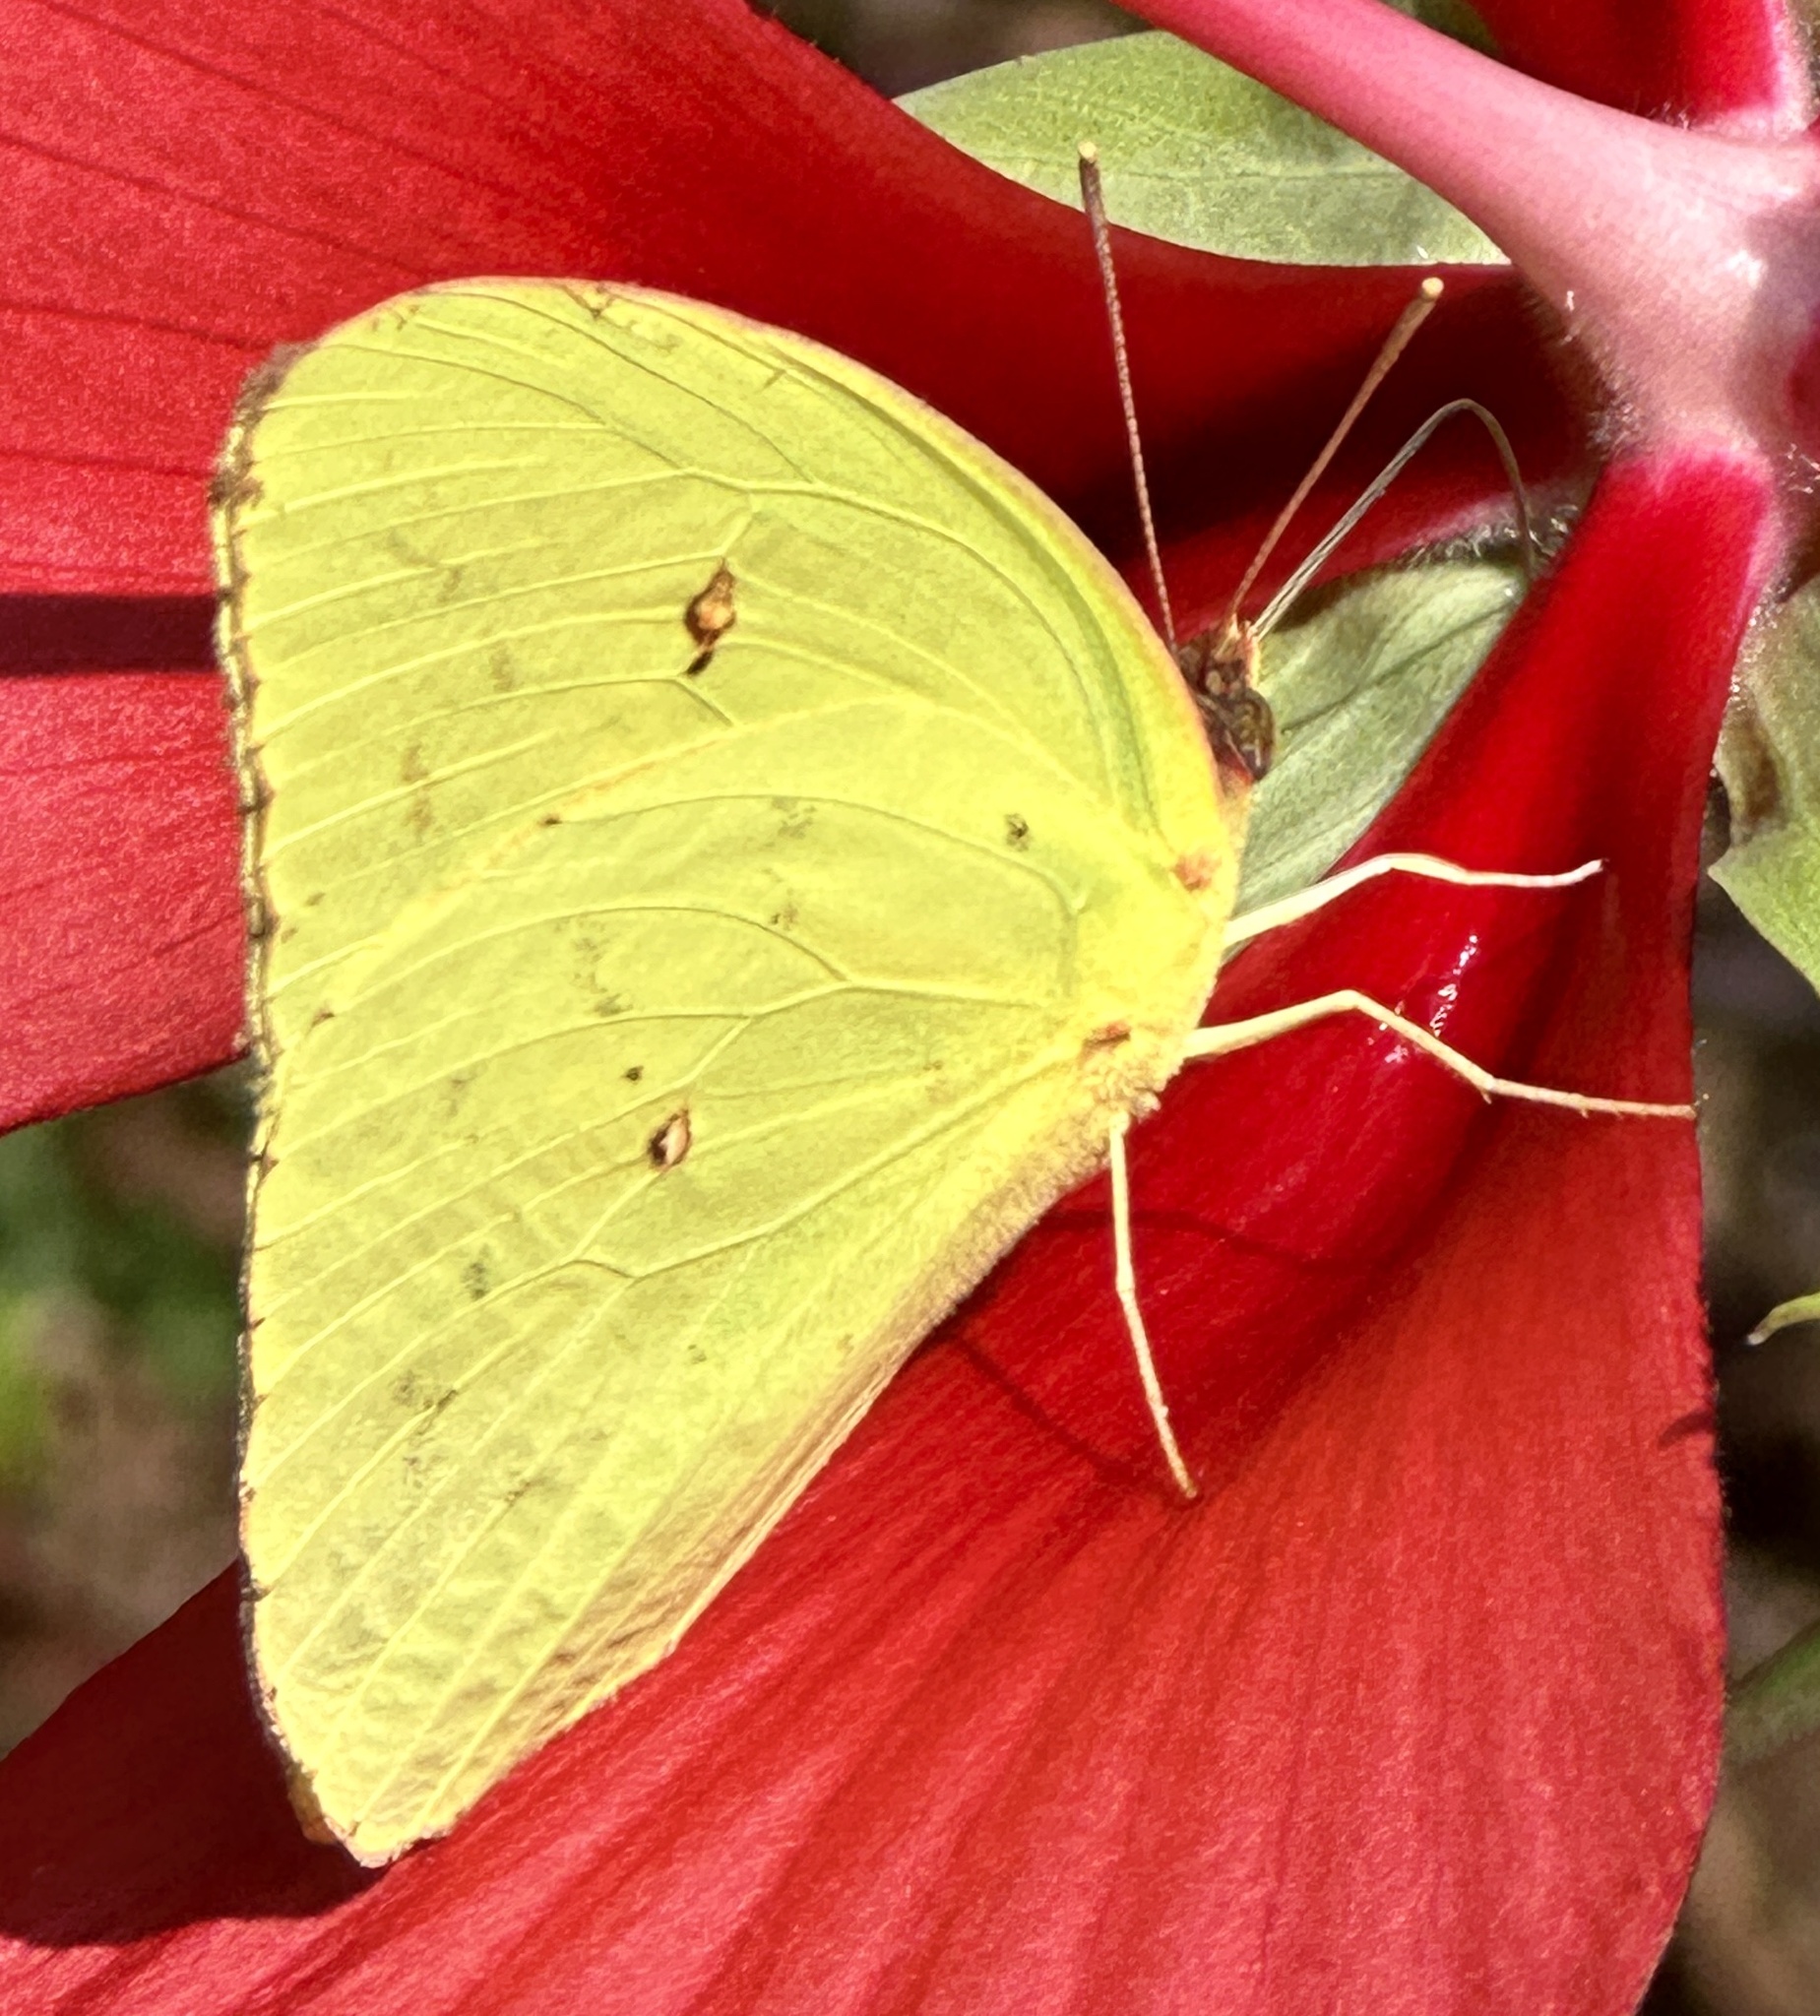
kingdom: Animalia
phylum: Arthropoda
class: Insecta
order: Lepidoptera
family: Pieridae
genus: Phoebis
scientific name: Phoebis sennae
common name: Cloudless sulphur
